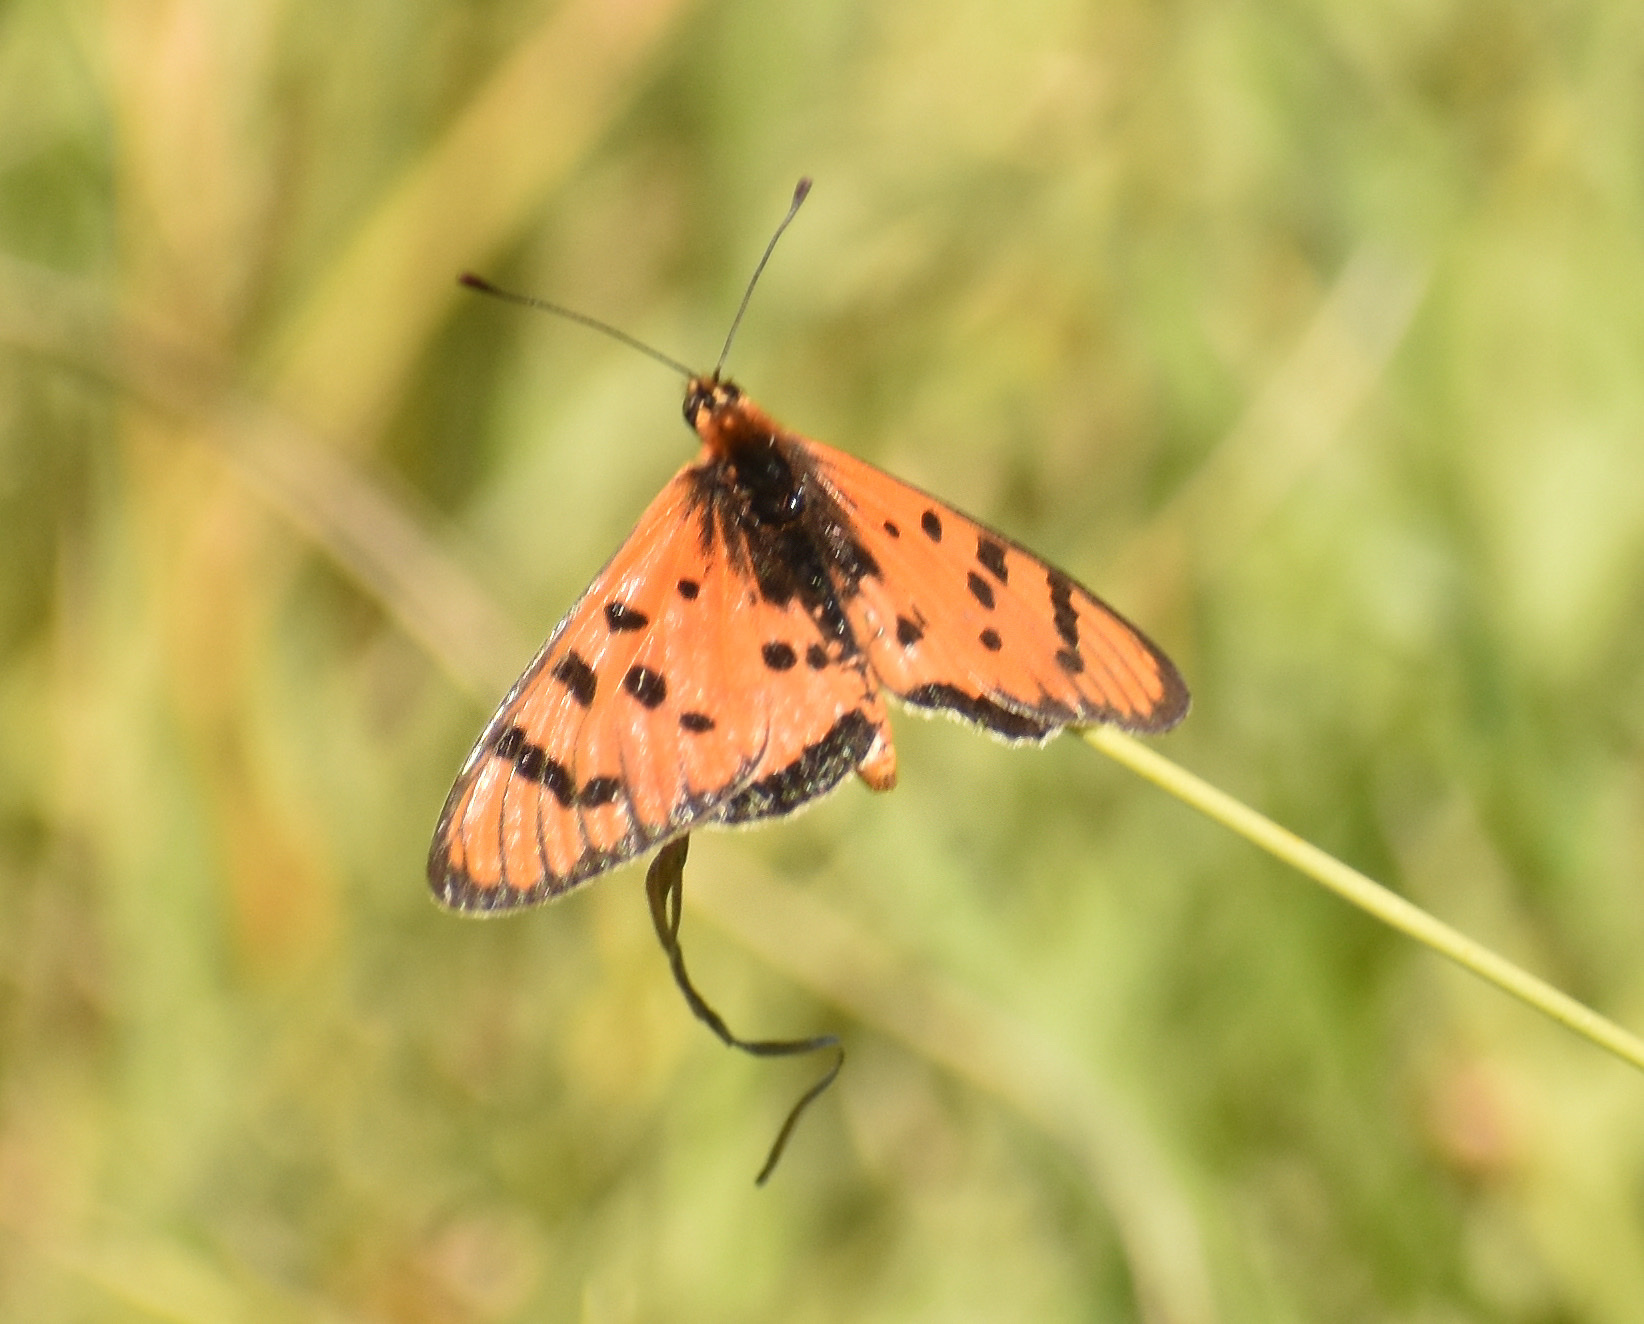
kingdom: Animalia
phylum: Arthropoda
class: Insecta
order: Lepidoptera
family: Nymphalidae
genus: Rubraea
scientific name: Rubraea
